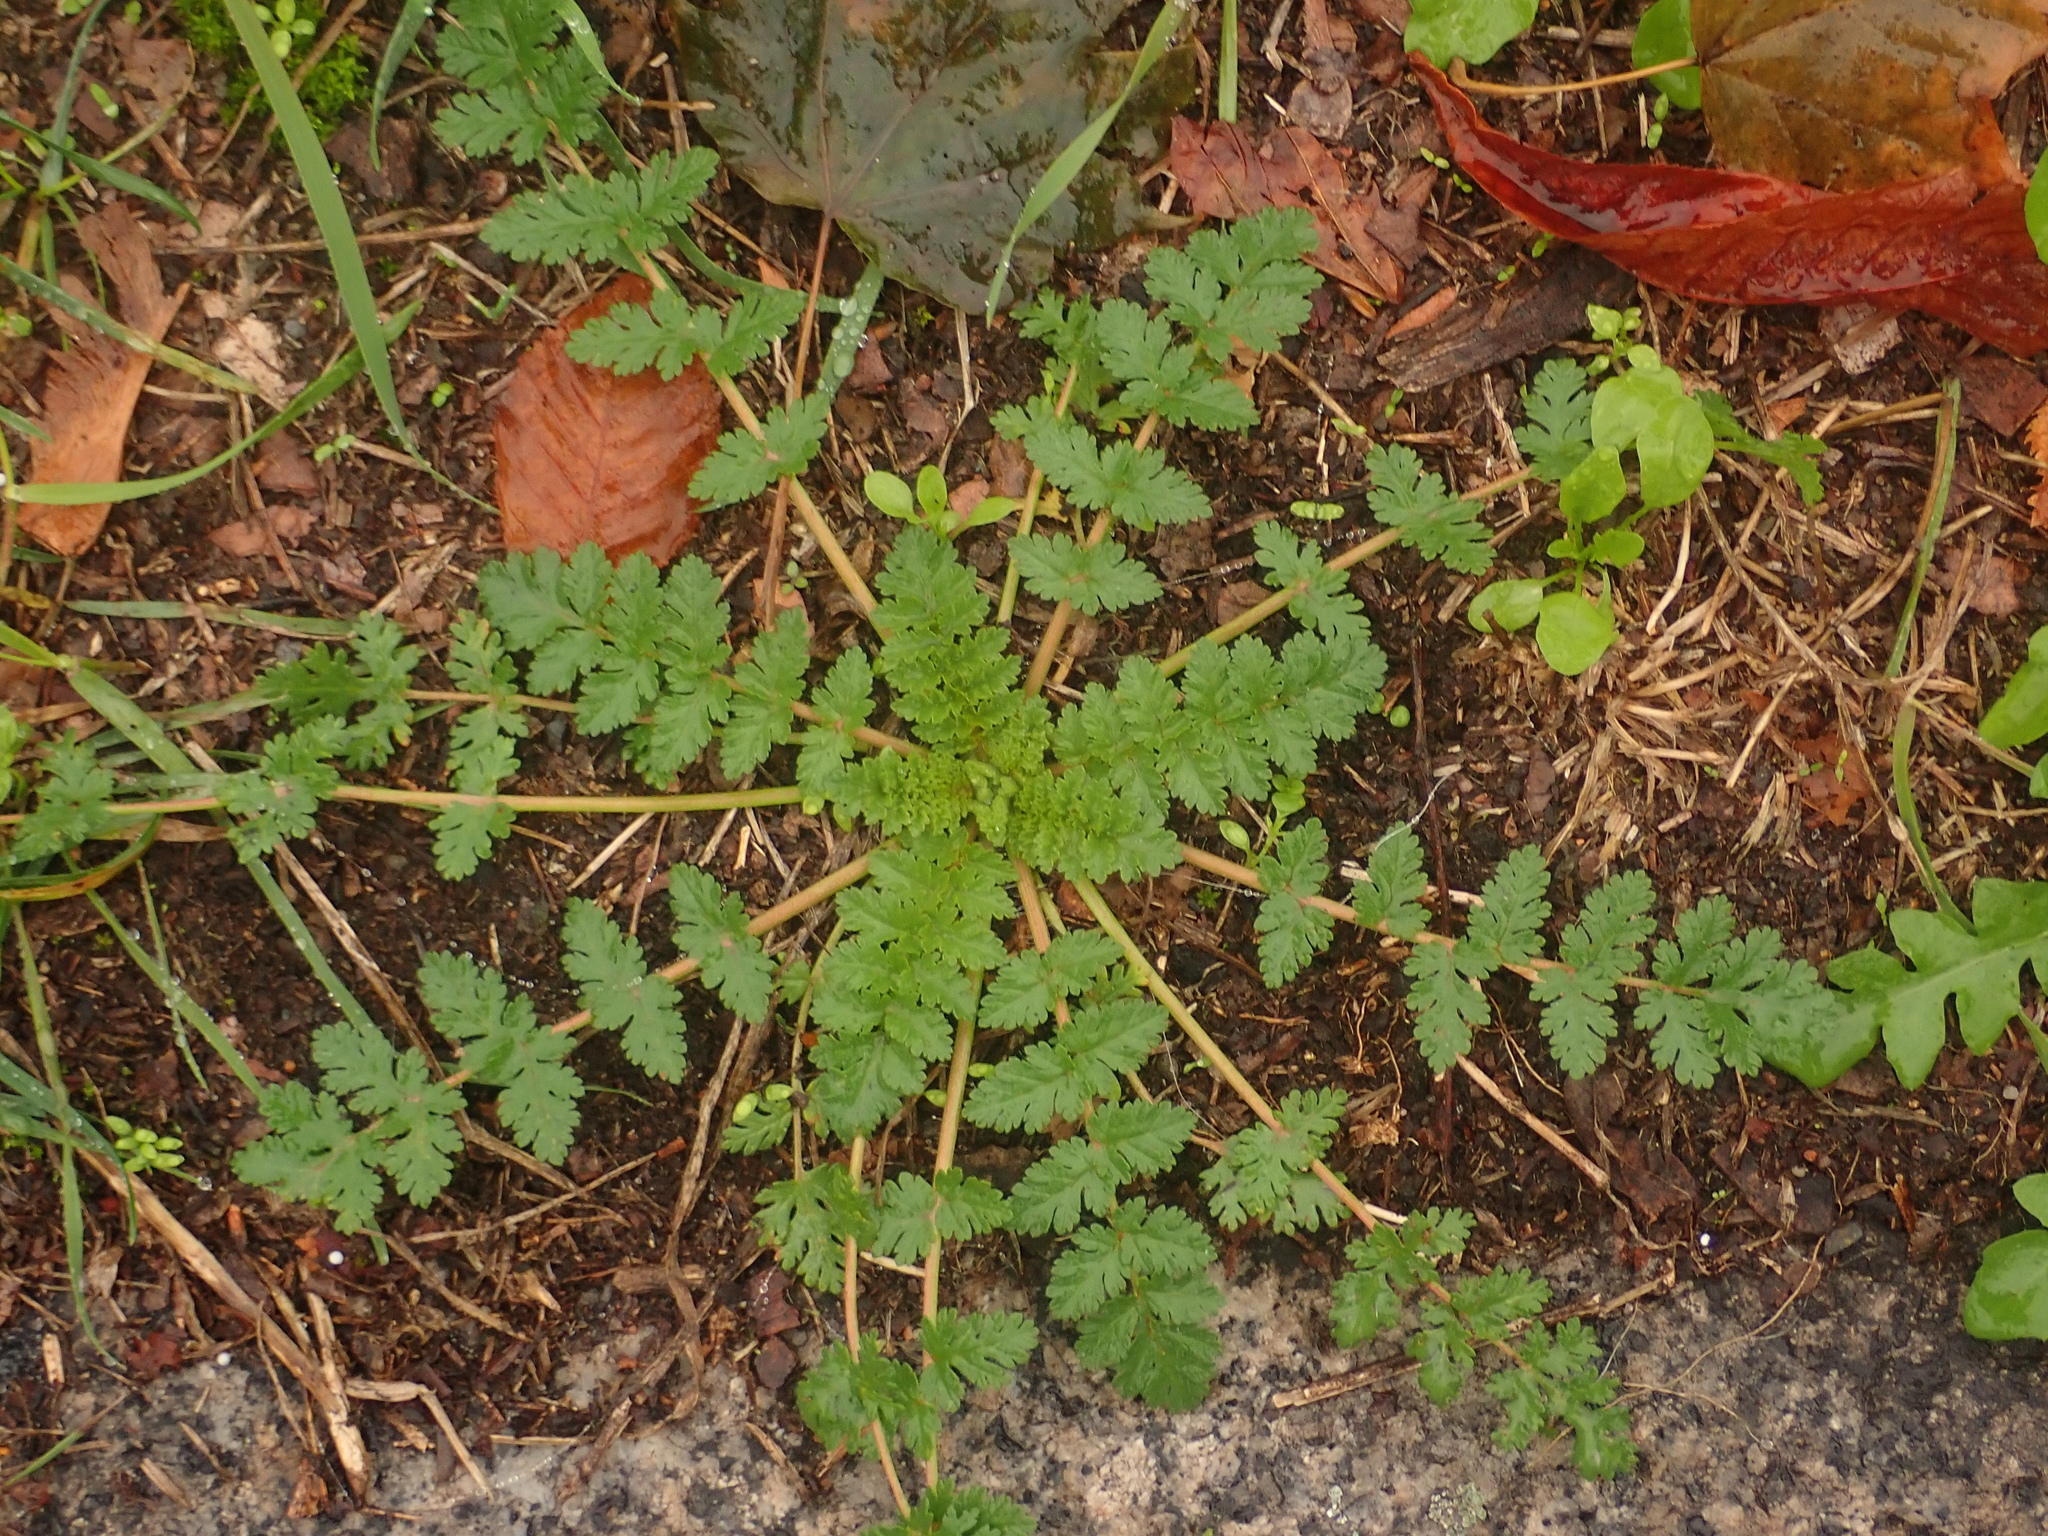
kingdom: Plantae
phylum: Tracheophyta
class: Magnoliopsida
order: Geraniales
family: Geraniaceae
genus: Erodium
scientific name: Erodium cicutarium
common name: Common stork's-bill
